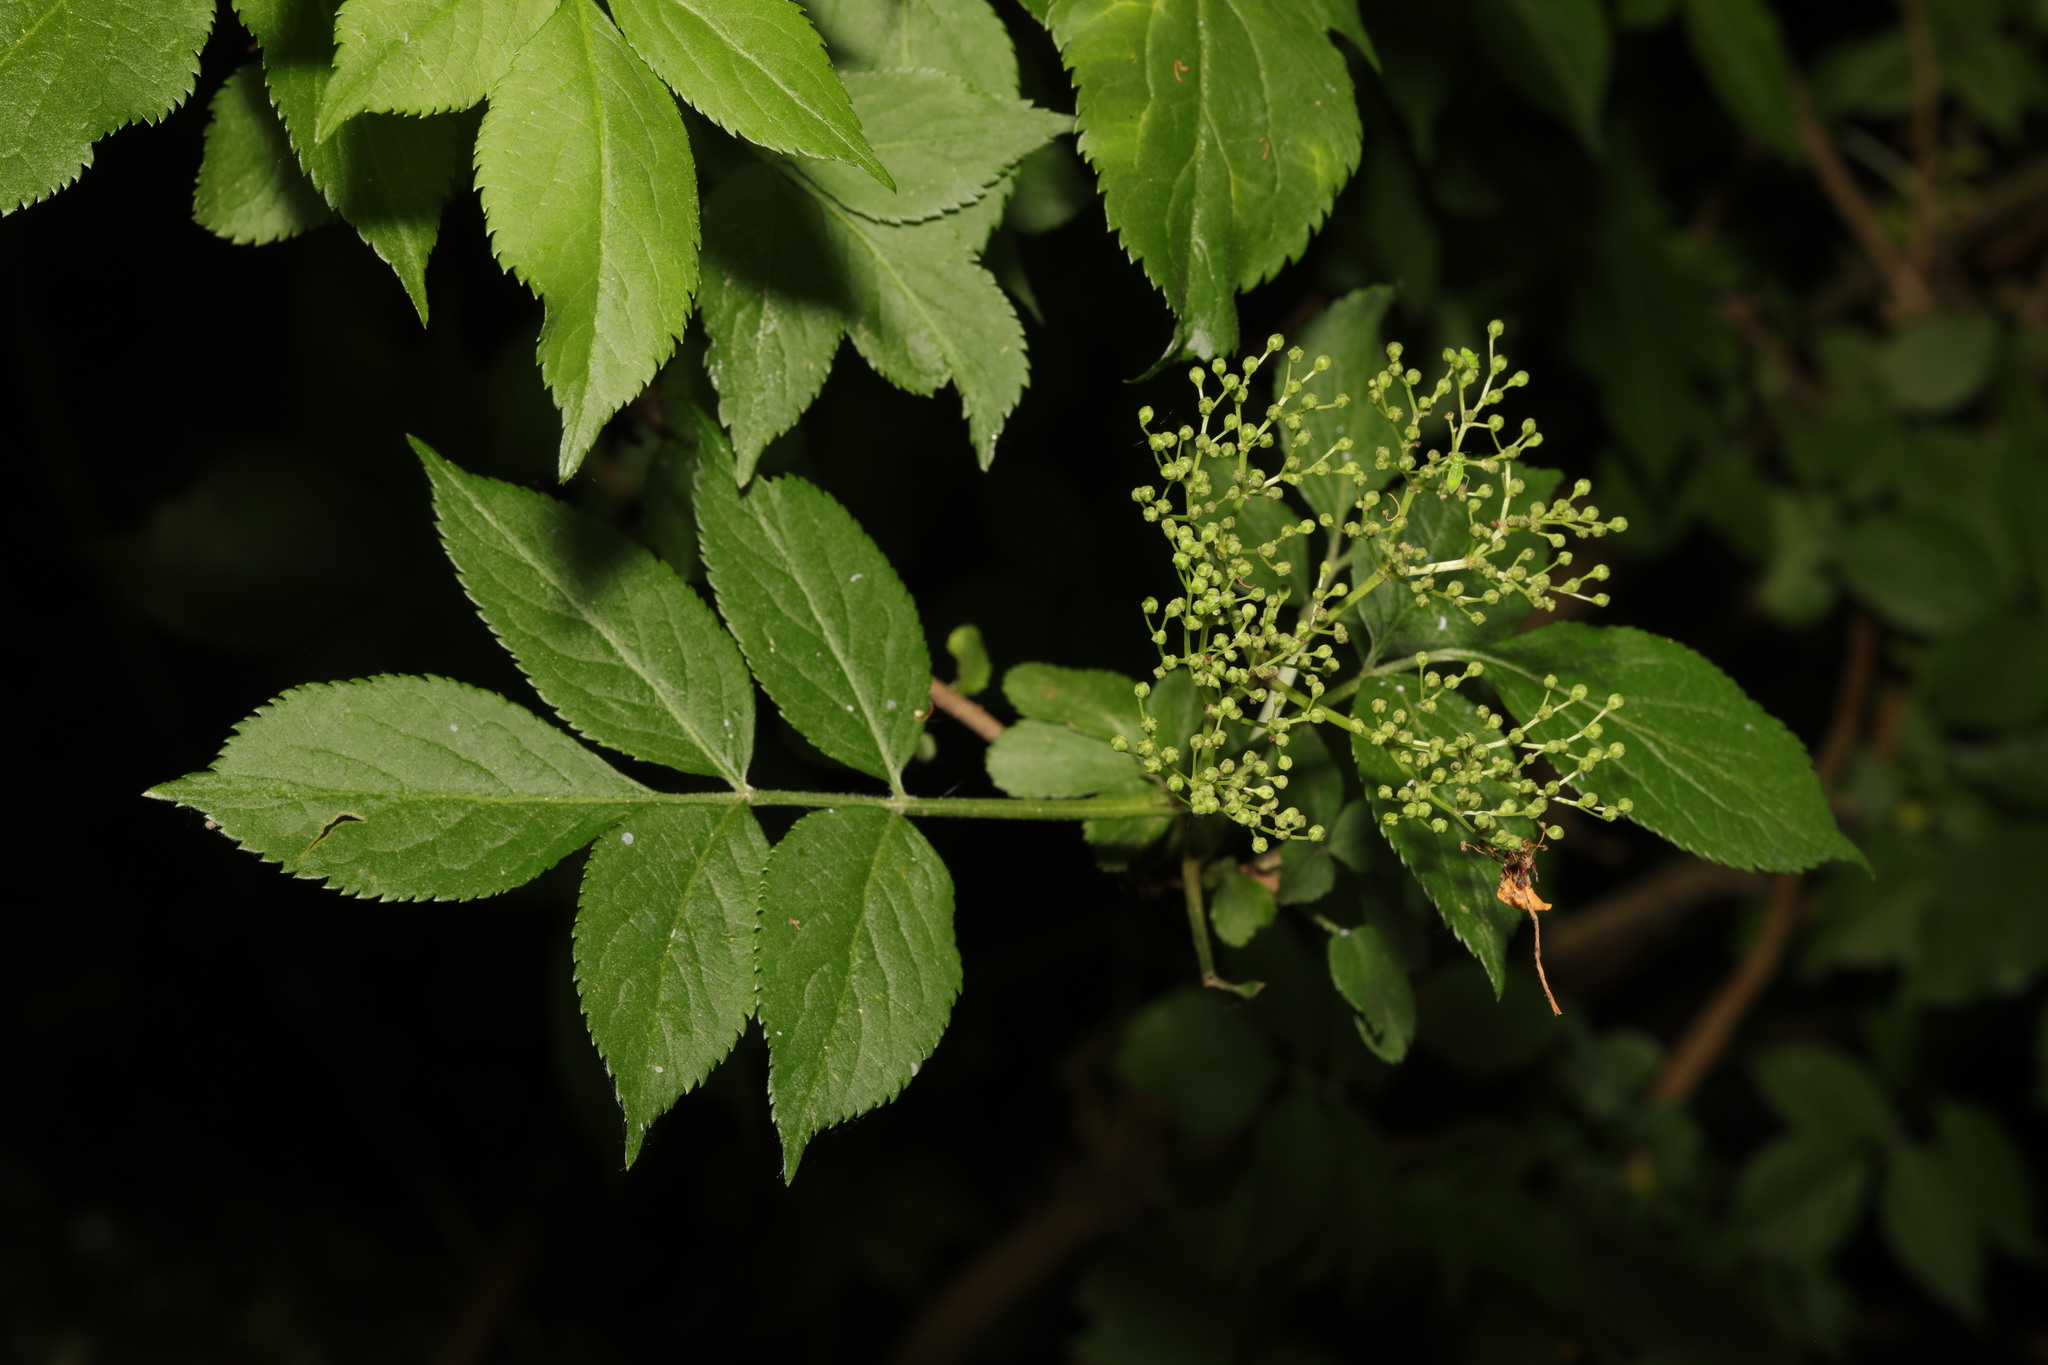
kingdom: Plantae
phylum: Tracheophyta
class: Magnoliopsida
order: Dipsacales
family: Viburnaceae
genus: Sambucus
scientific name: Sambucus nigra
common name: Elder
